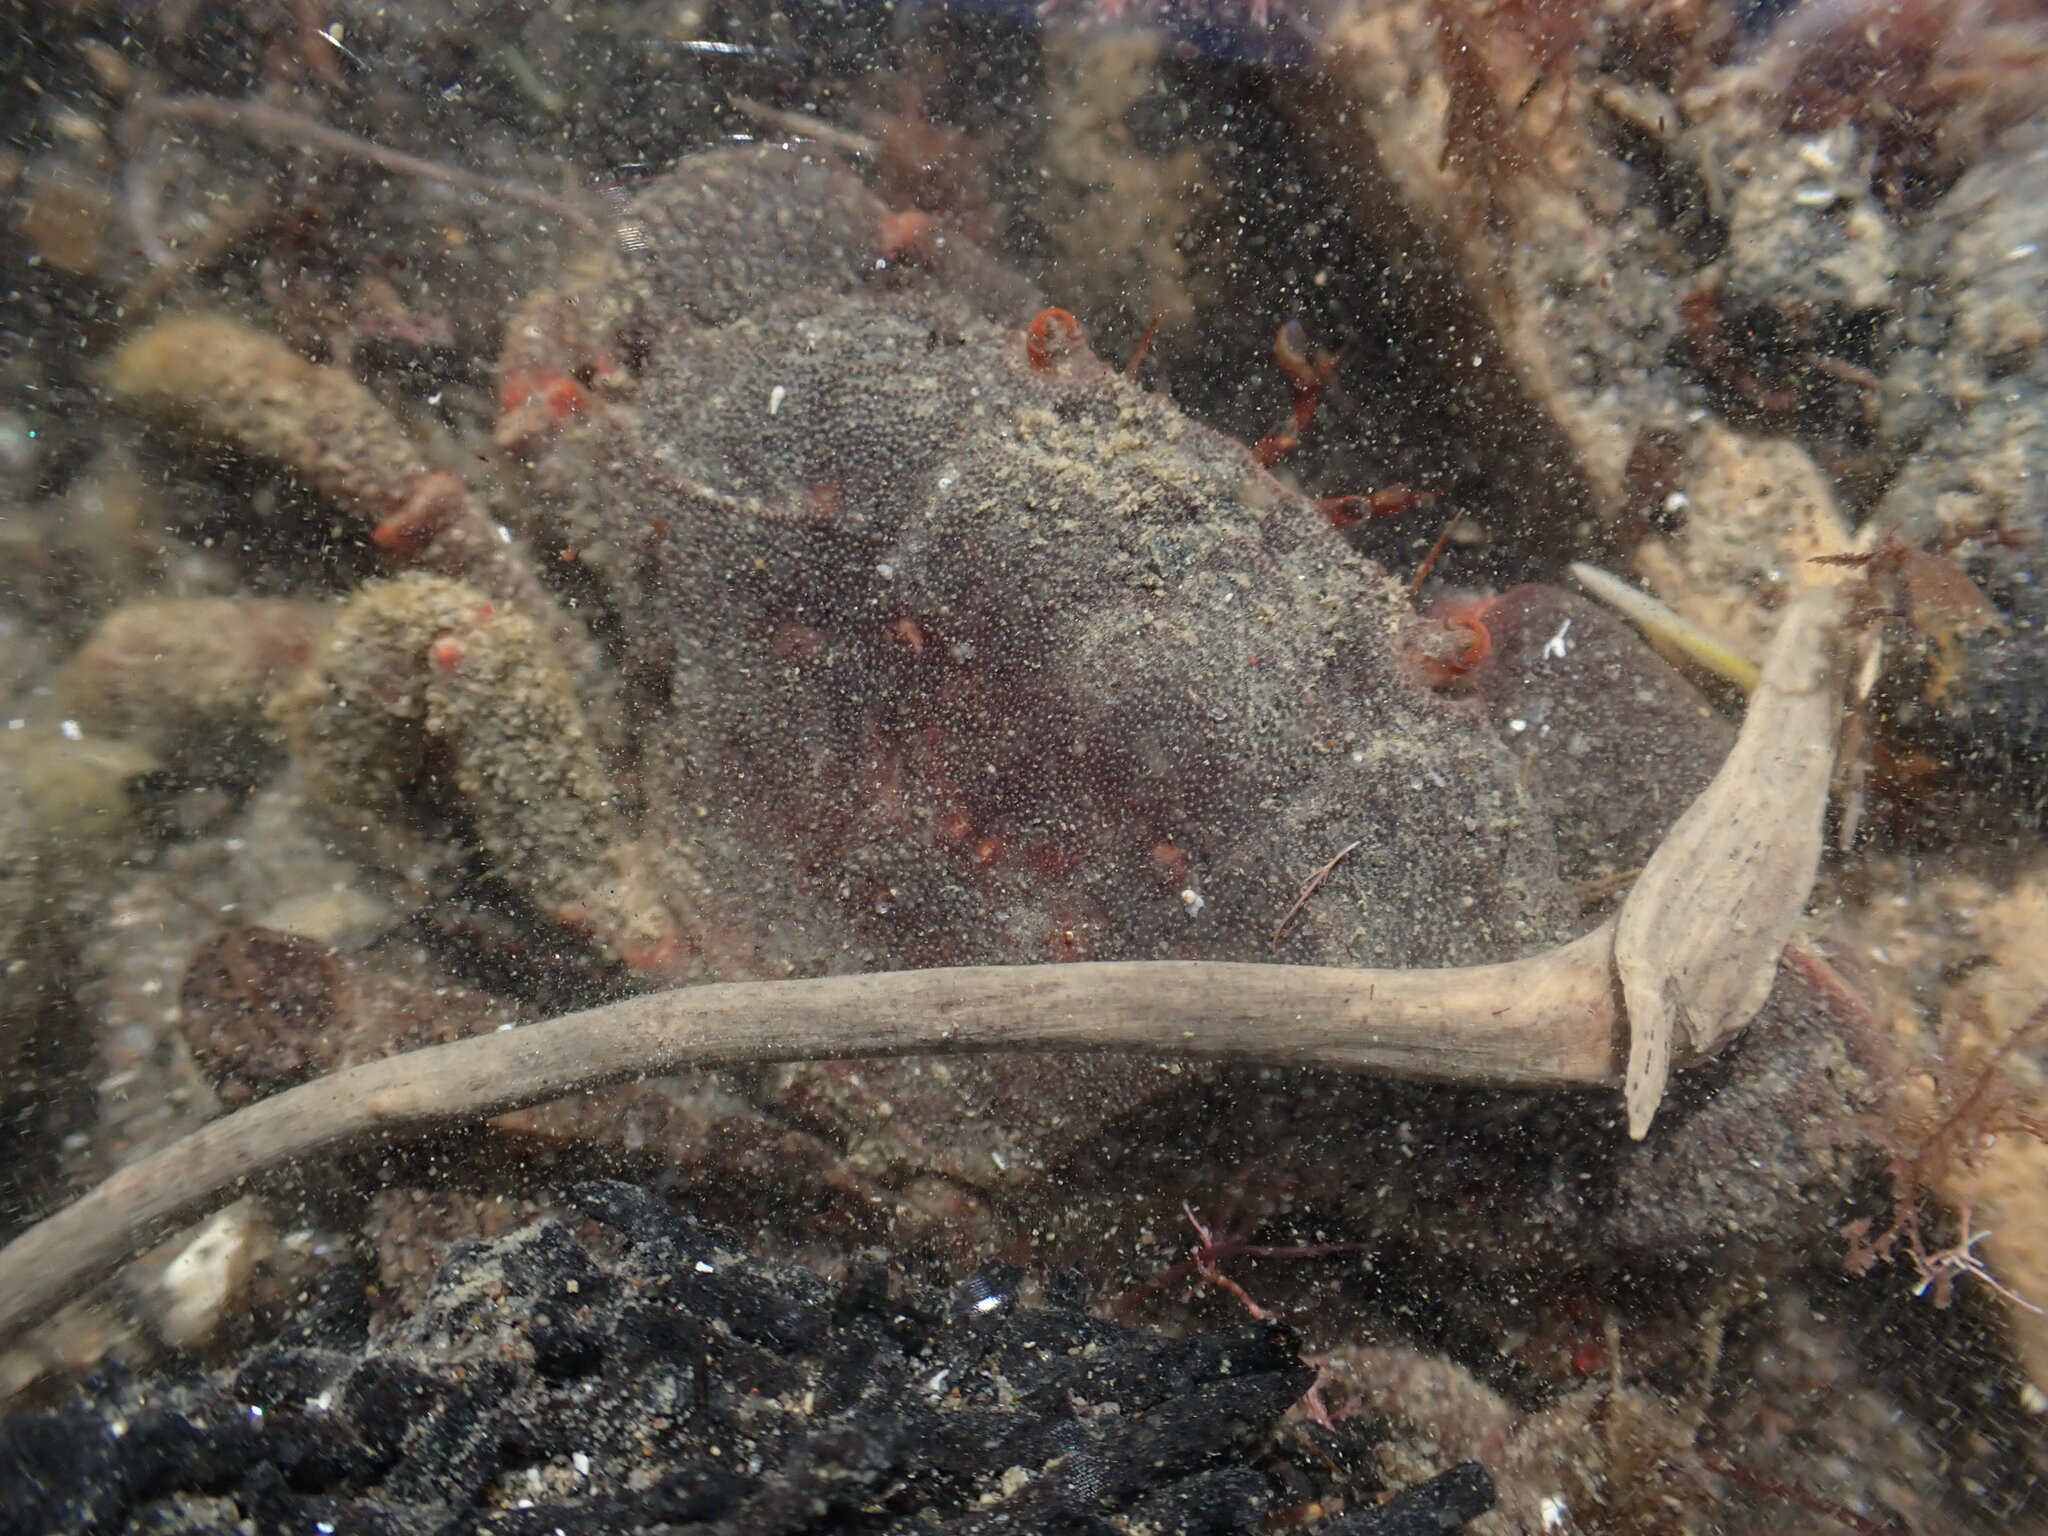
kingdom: Animalia
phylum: Arthropoda
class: Malacostraca
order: Decapoda
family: Oziidae
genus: Ozius
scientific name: Ozius deplanatus
